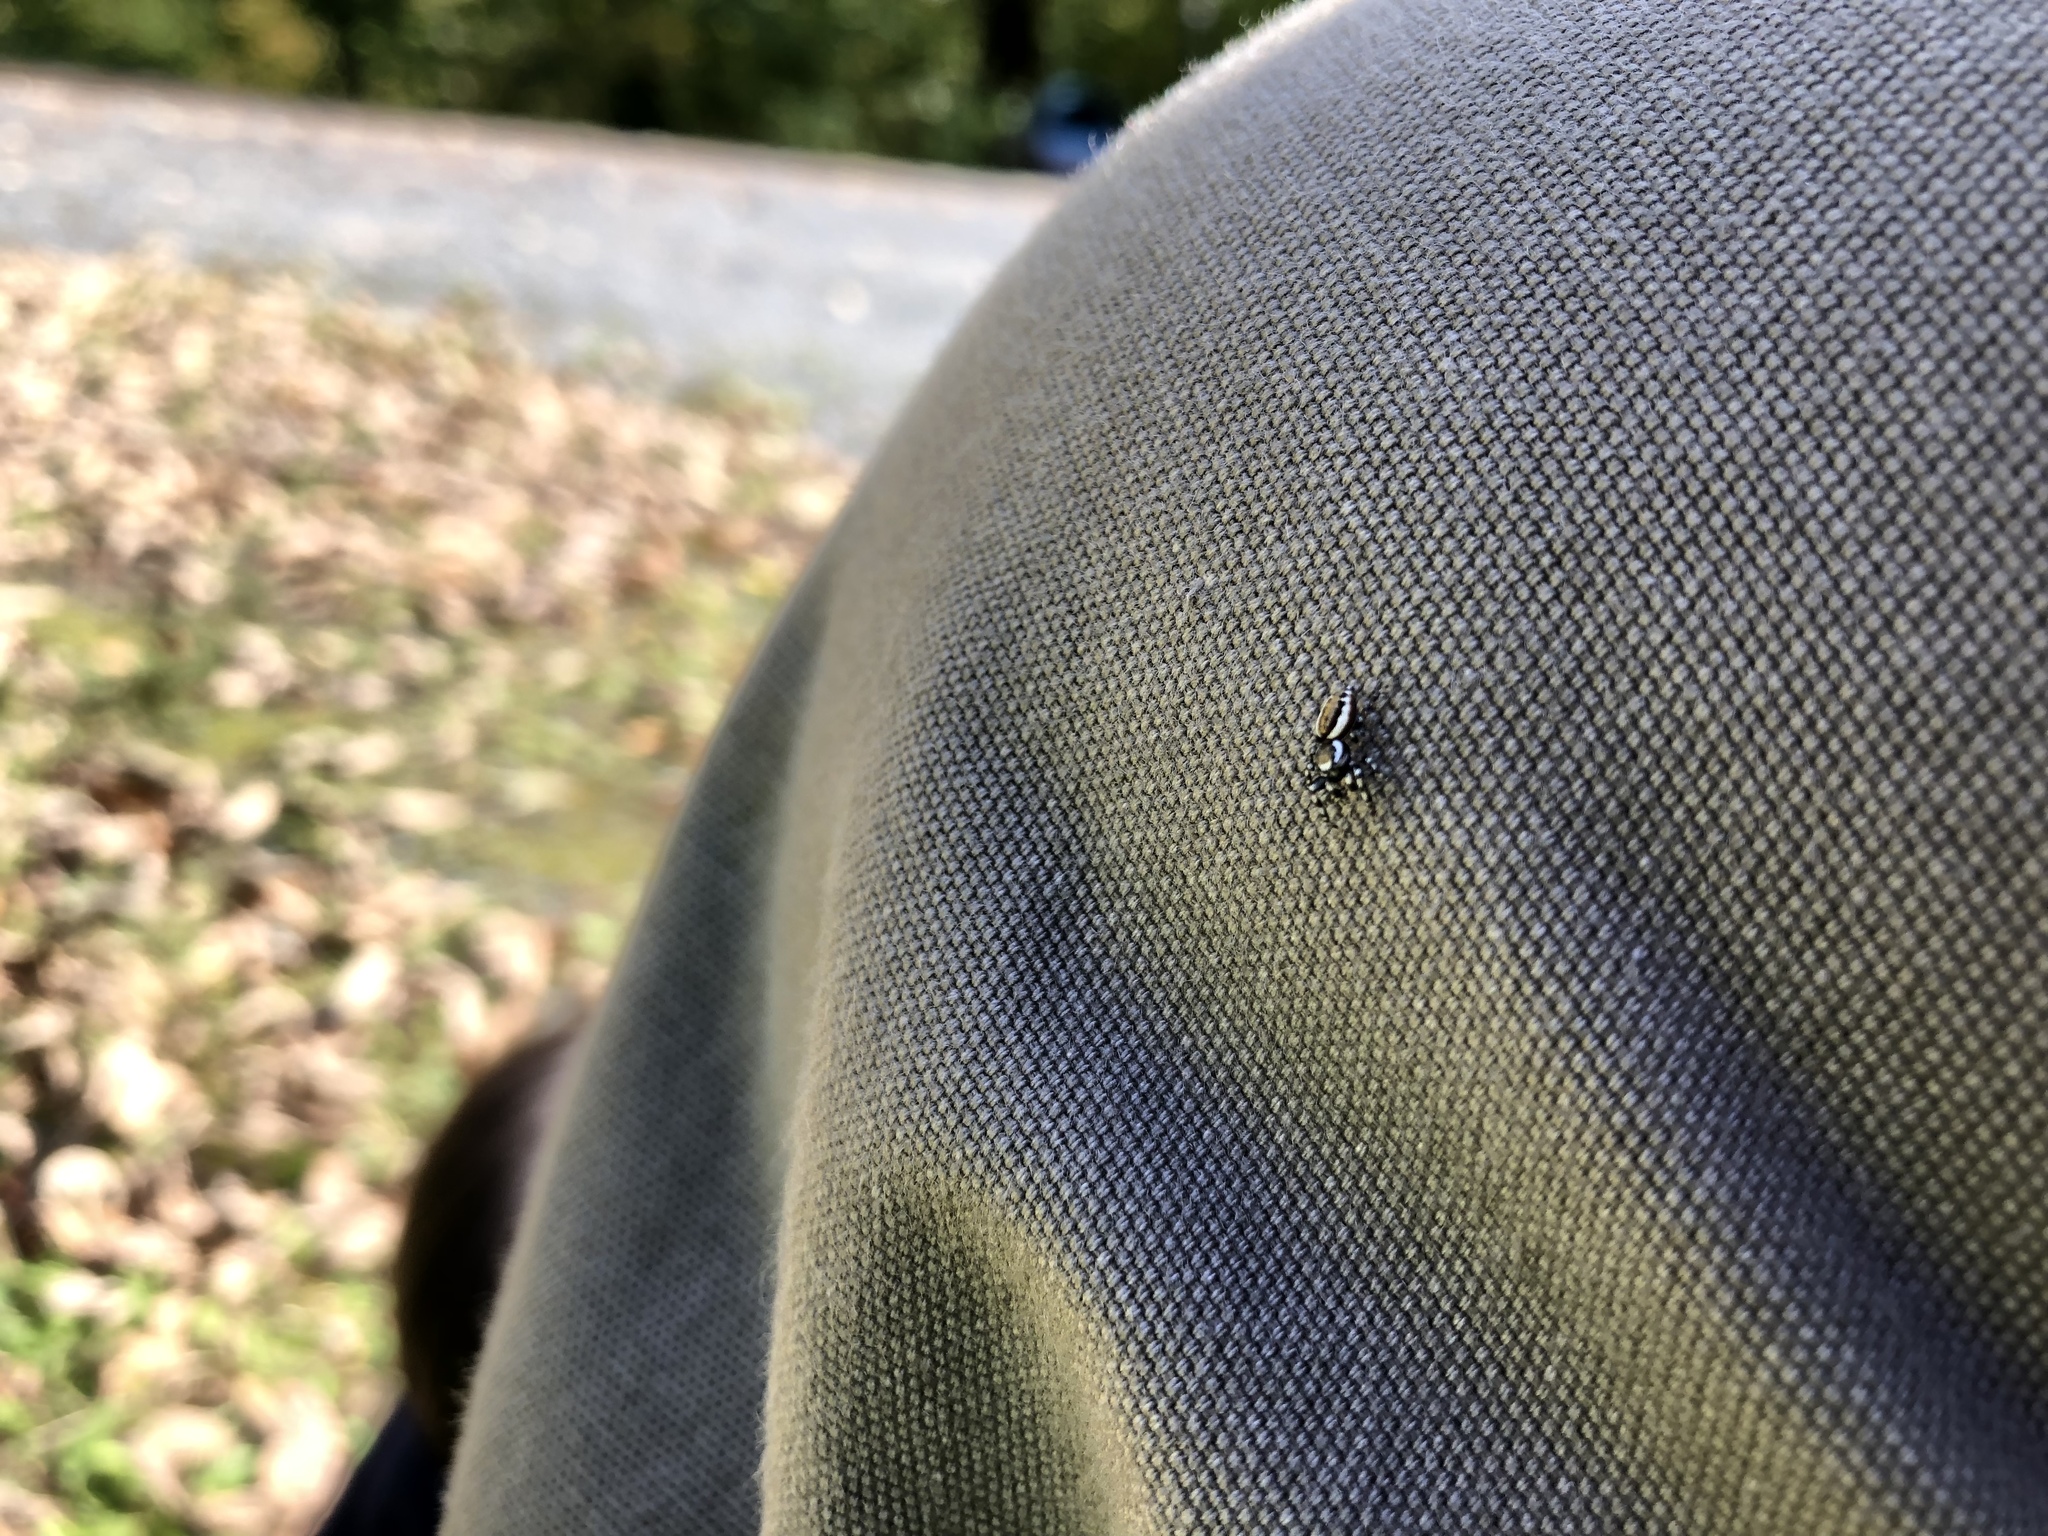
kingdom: Animalia
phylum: Arthropoda
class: Arachnida
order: Araneae
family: Salticidae
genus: Pelegrina
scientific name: Pelegrina proterva
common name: Common white-cheeked jumping spider
